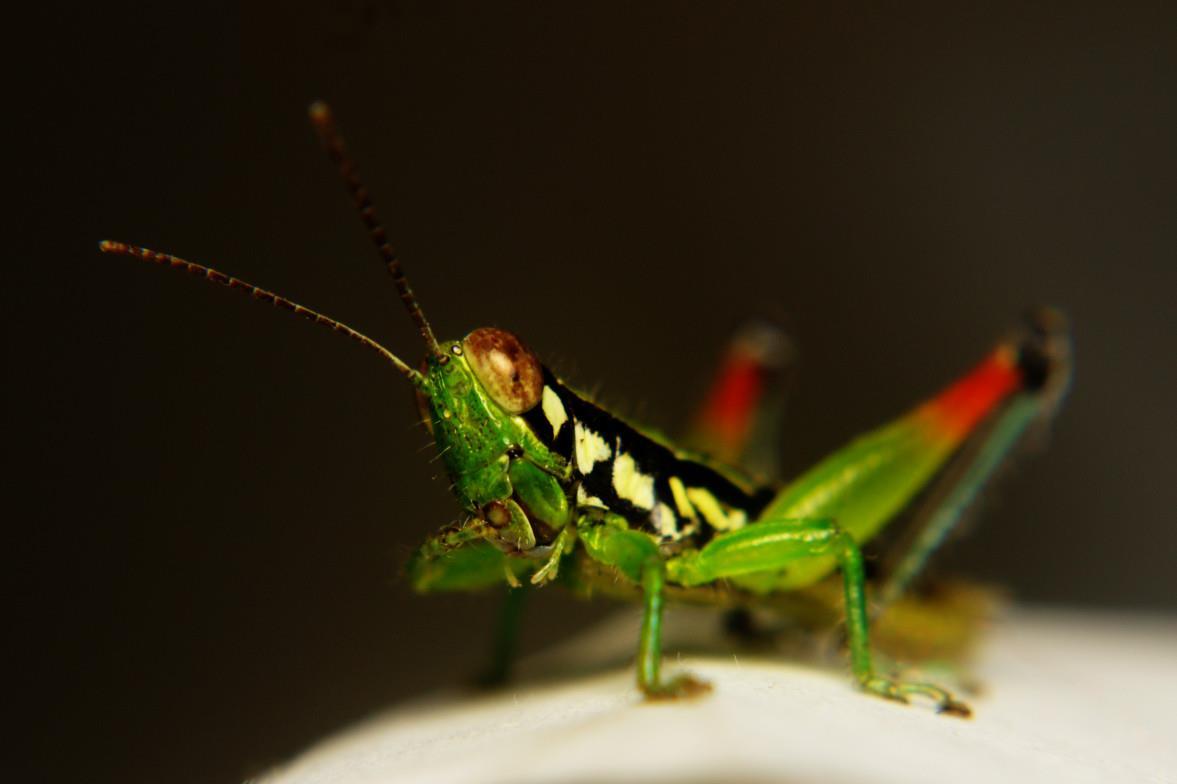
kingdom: Animalia
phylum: Arthropoda
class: Insecta
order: Orthoptera
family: Acrididae
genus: Caryanda
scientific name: Caryanda cachara
